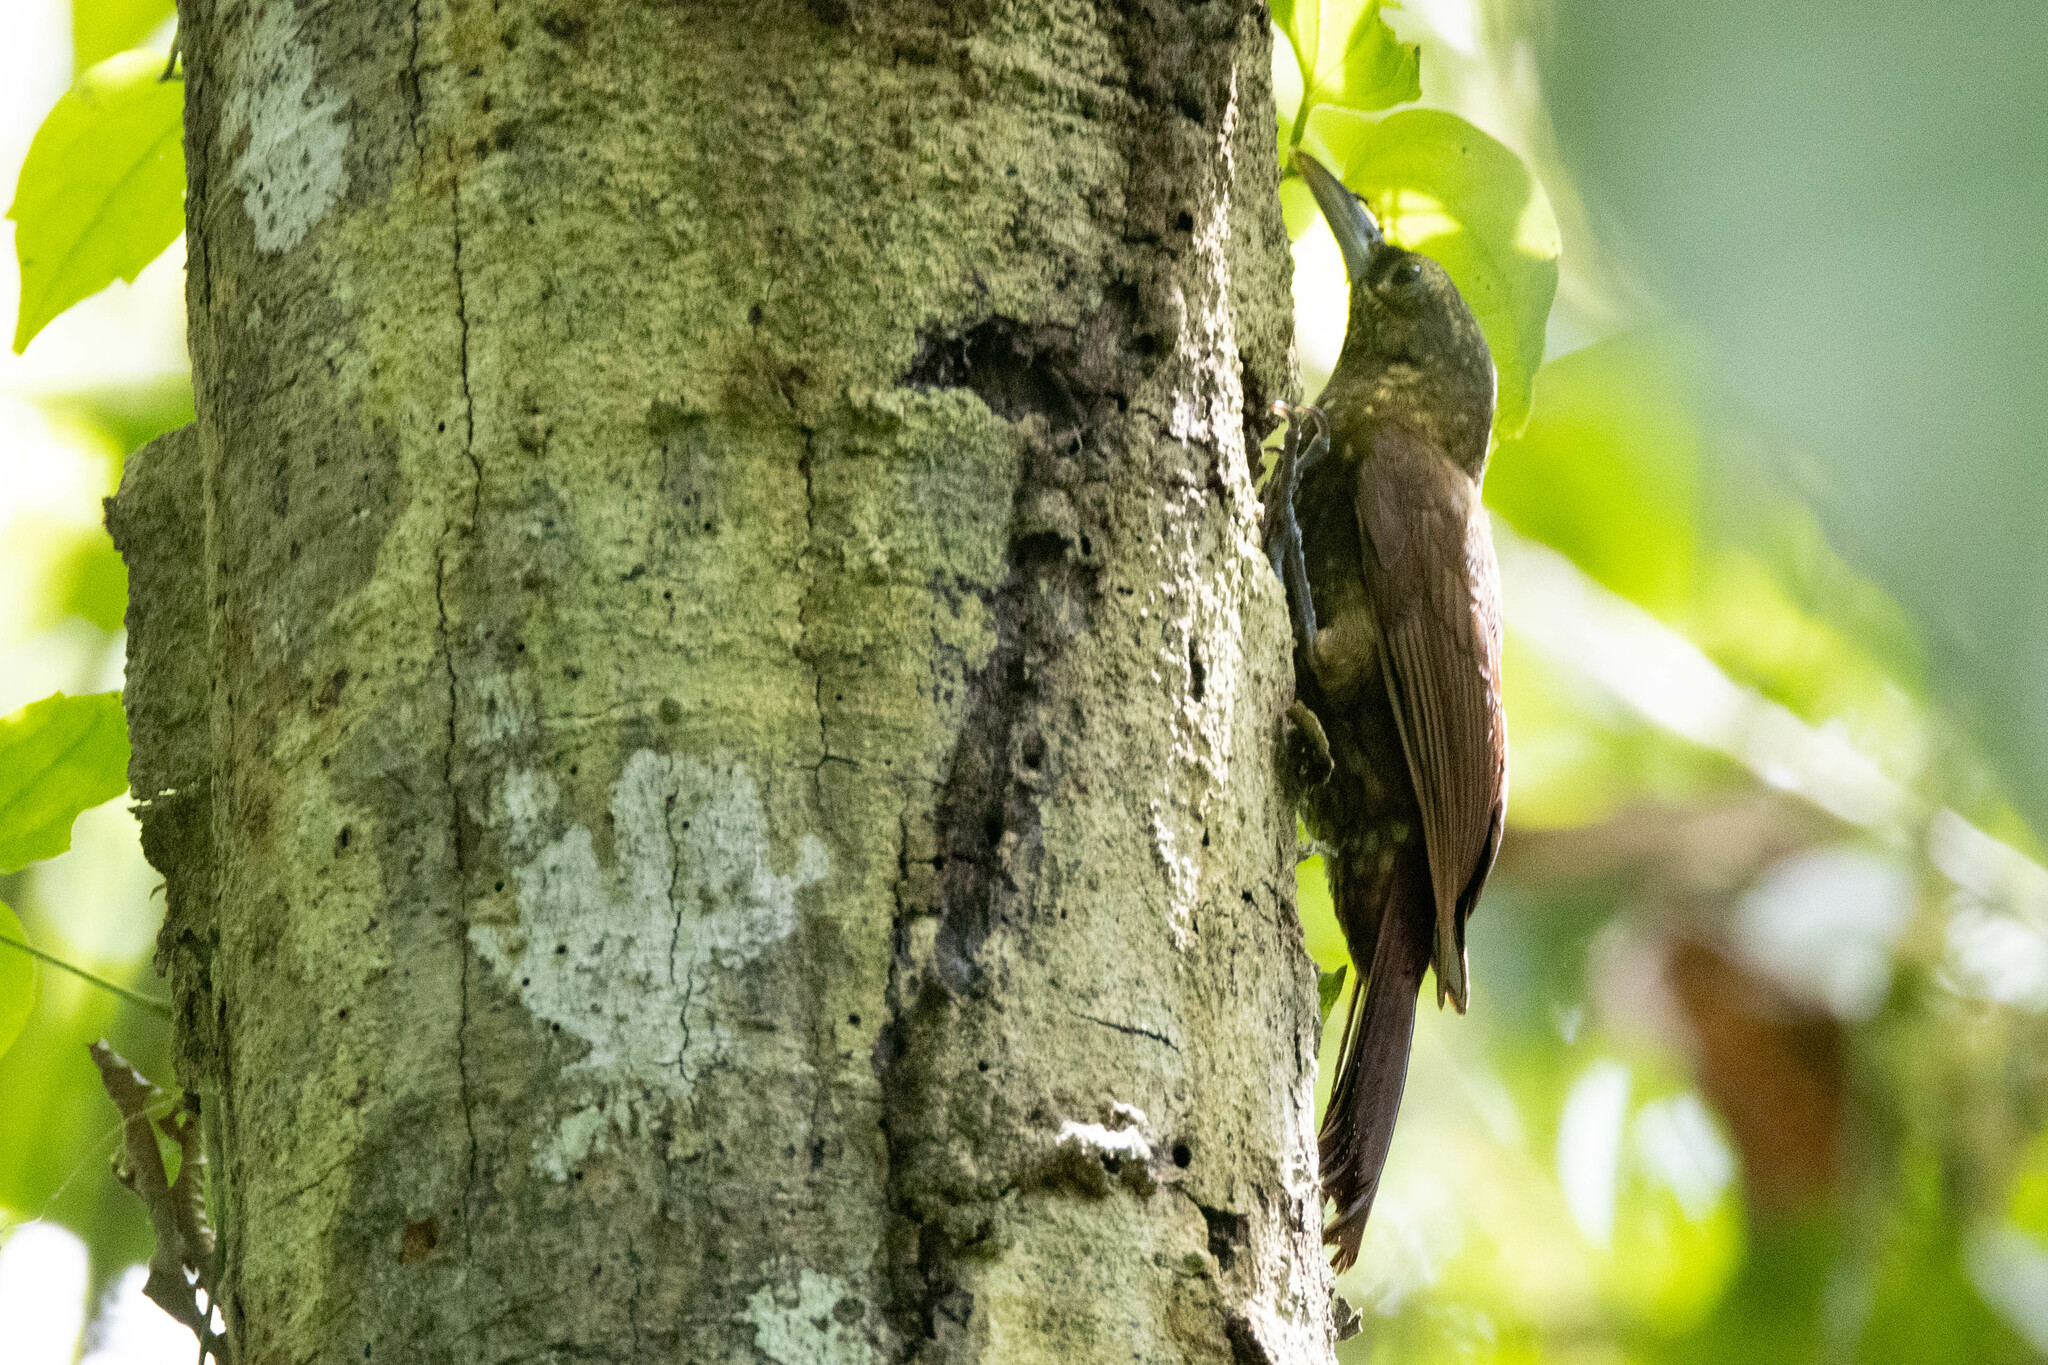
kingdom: Animalia
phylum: Chordata
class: Aves
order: Passeriformes
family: Furnariidae
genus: Xiphorhynchus
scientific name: Xiphorhynchus erythropygius
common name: Spotted woodcreeper
